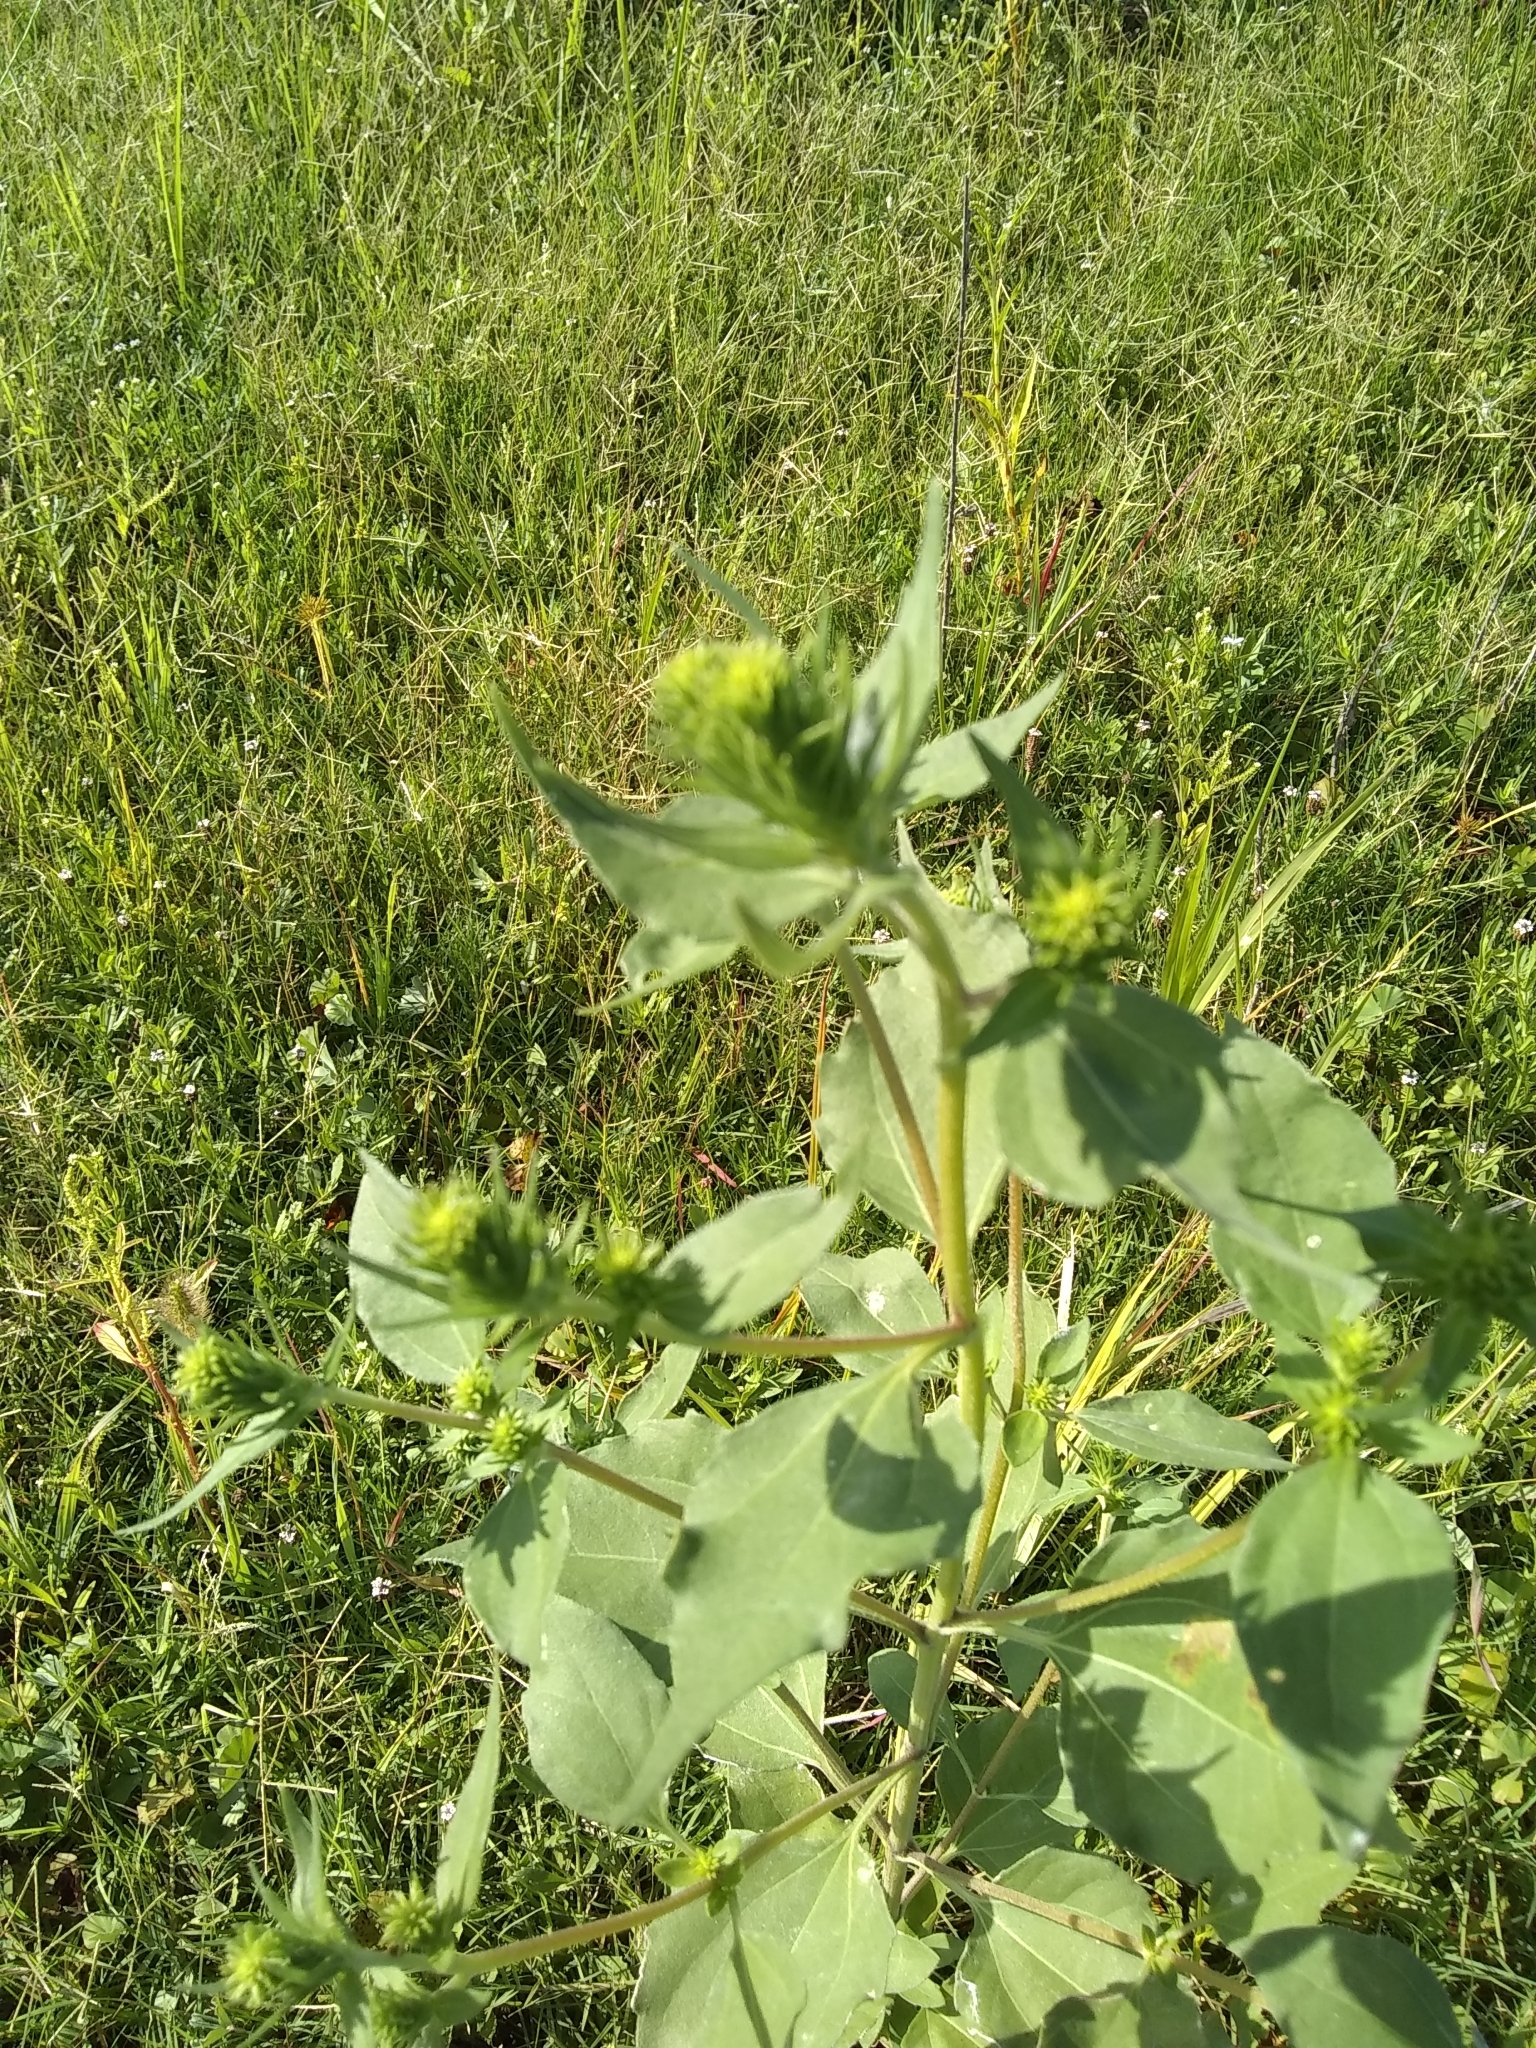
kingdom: Plantae
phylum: Tracheophyta
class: Magnoliopsida
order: Asterales
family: Asteraceae
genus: Iva
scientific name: Iva annua
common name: Marsh-elder
